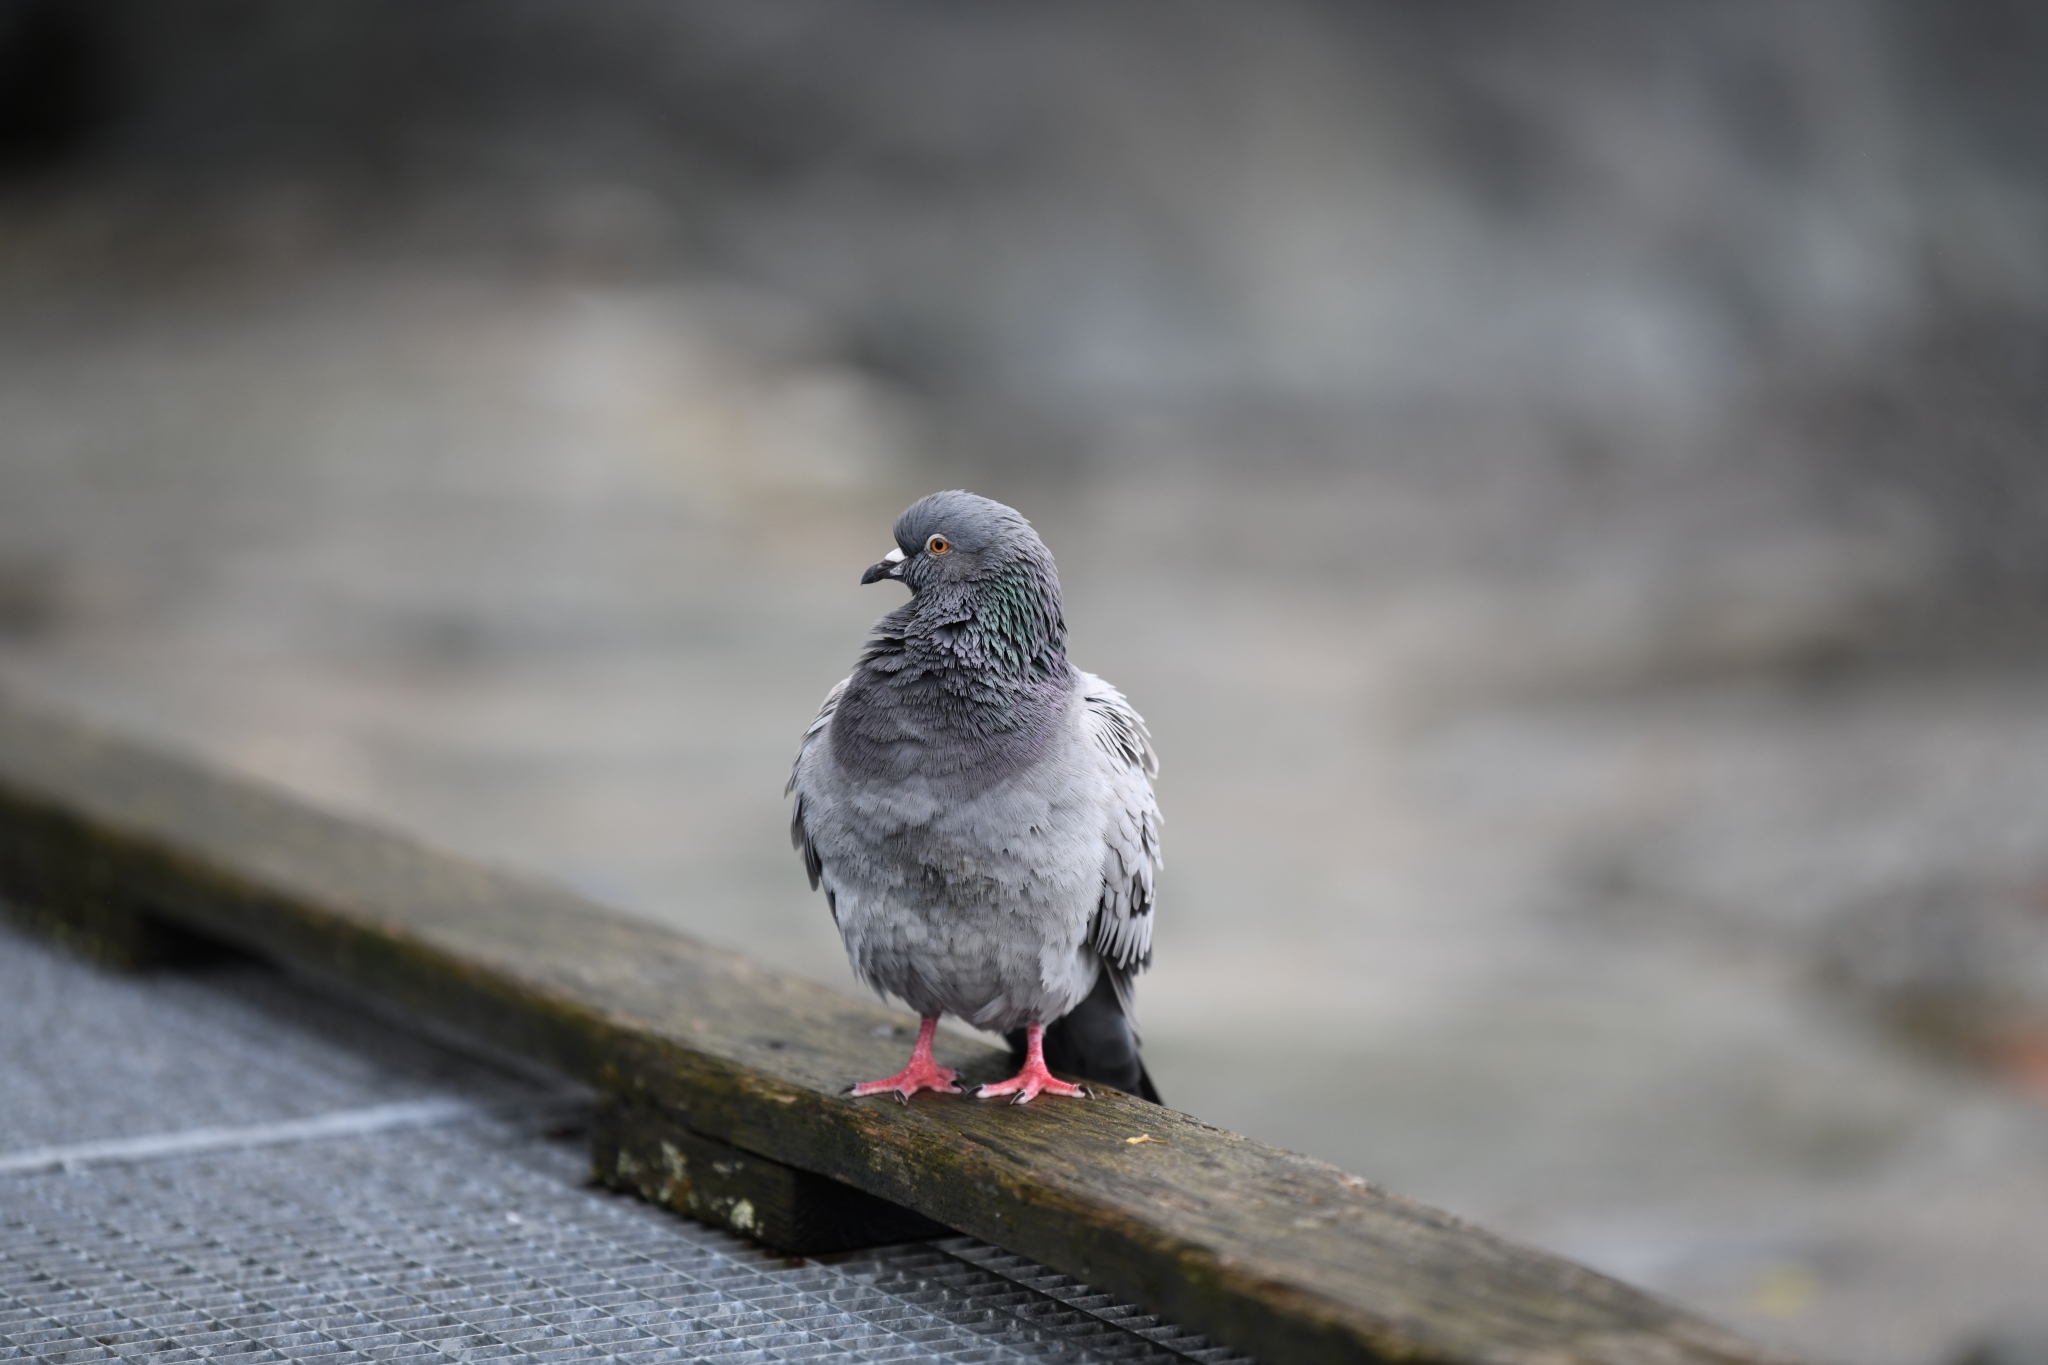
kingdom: Animalia
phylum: Chordata
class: Aves
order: Columbiformes
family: Columbidae
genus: Columba
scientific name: Columba livia
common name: Rock pigeon
